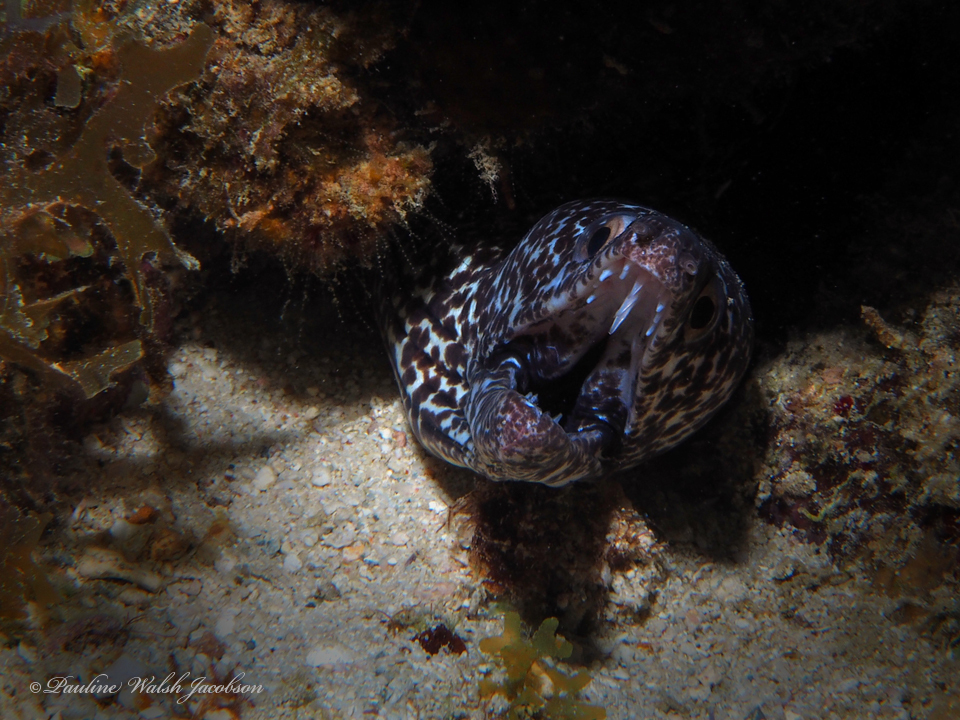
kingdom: Animalia
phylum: Chordata
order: Anguilliformes
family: Muraenidae
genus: Gymnothorax
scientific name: Gymnothorax moringa
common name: Spotted moray
